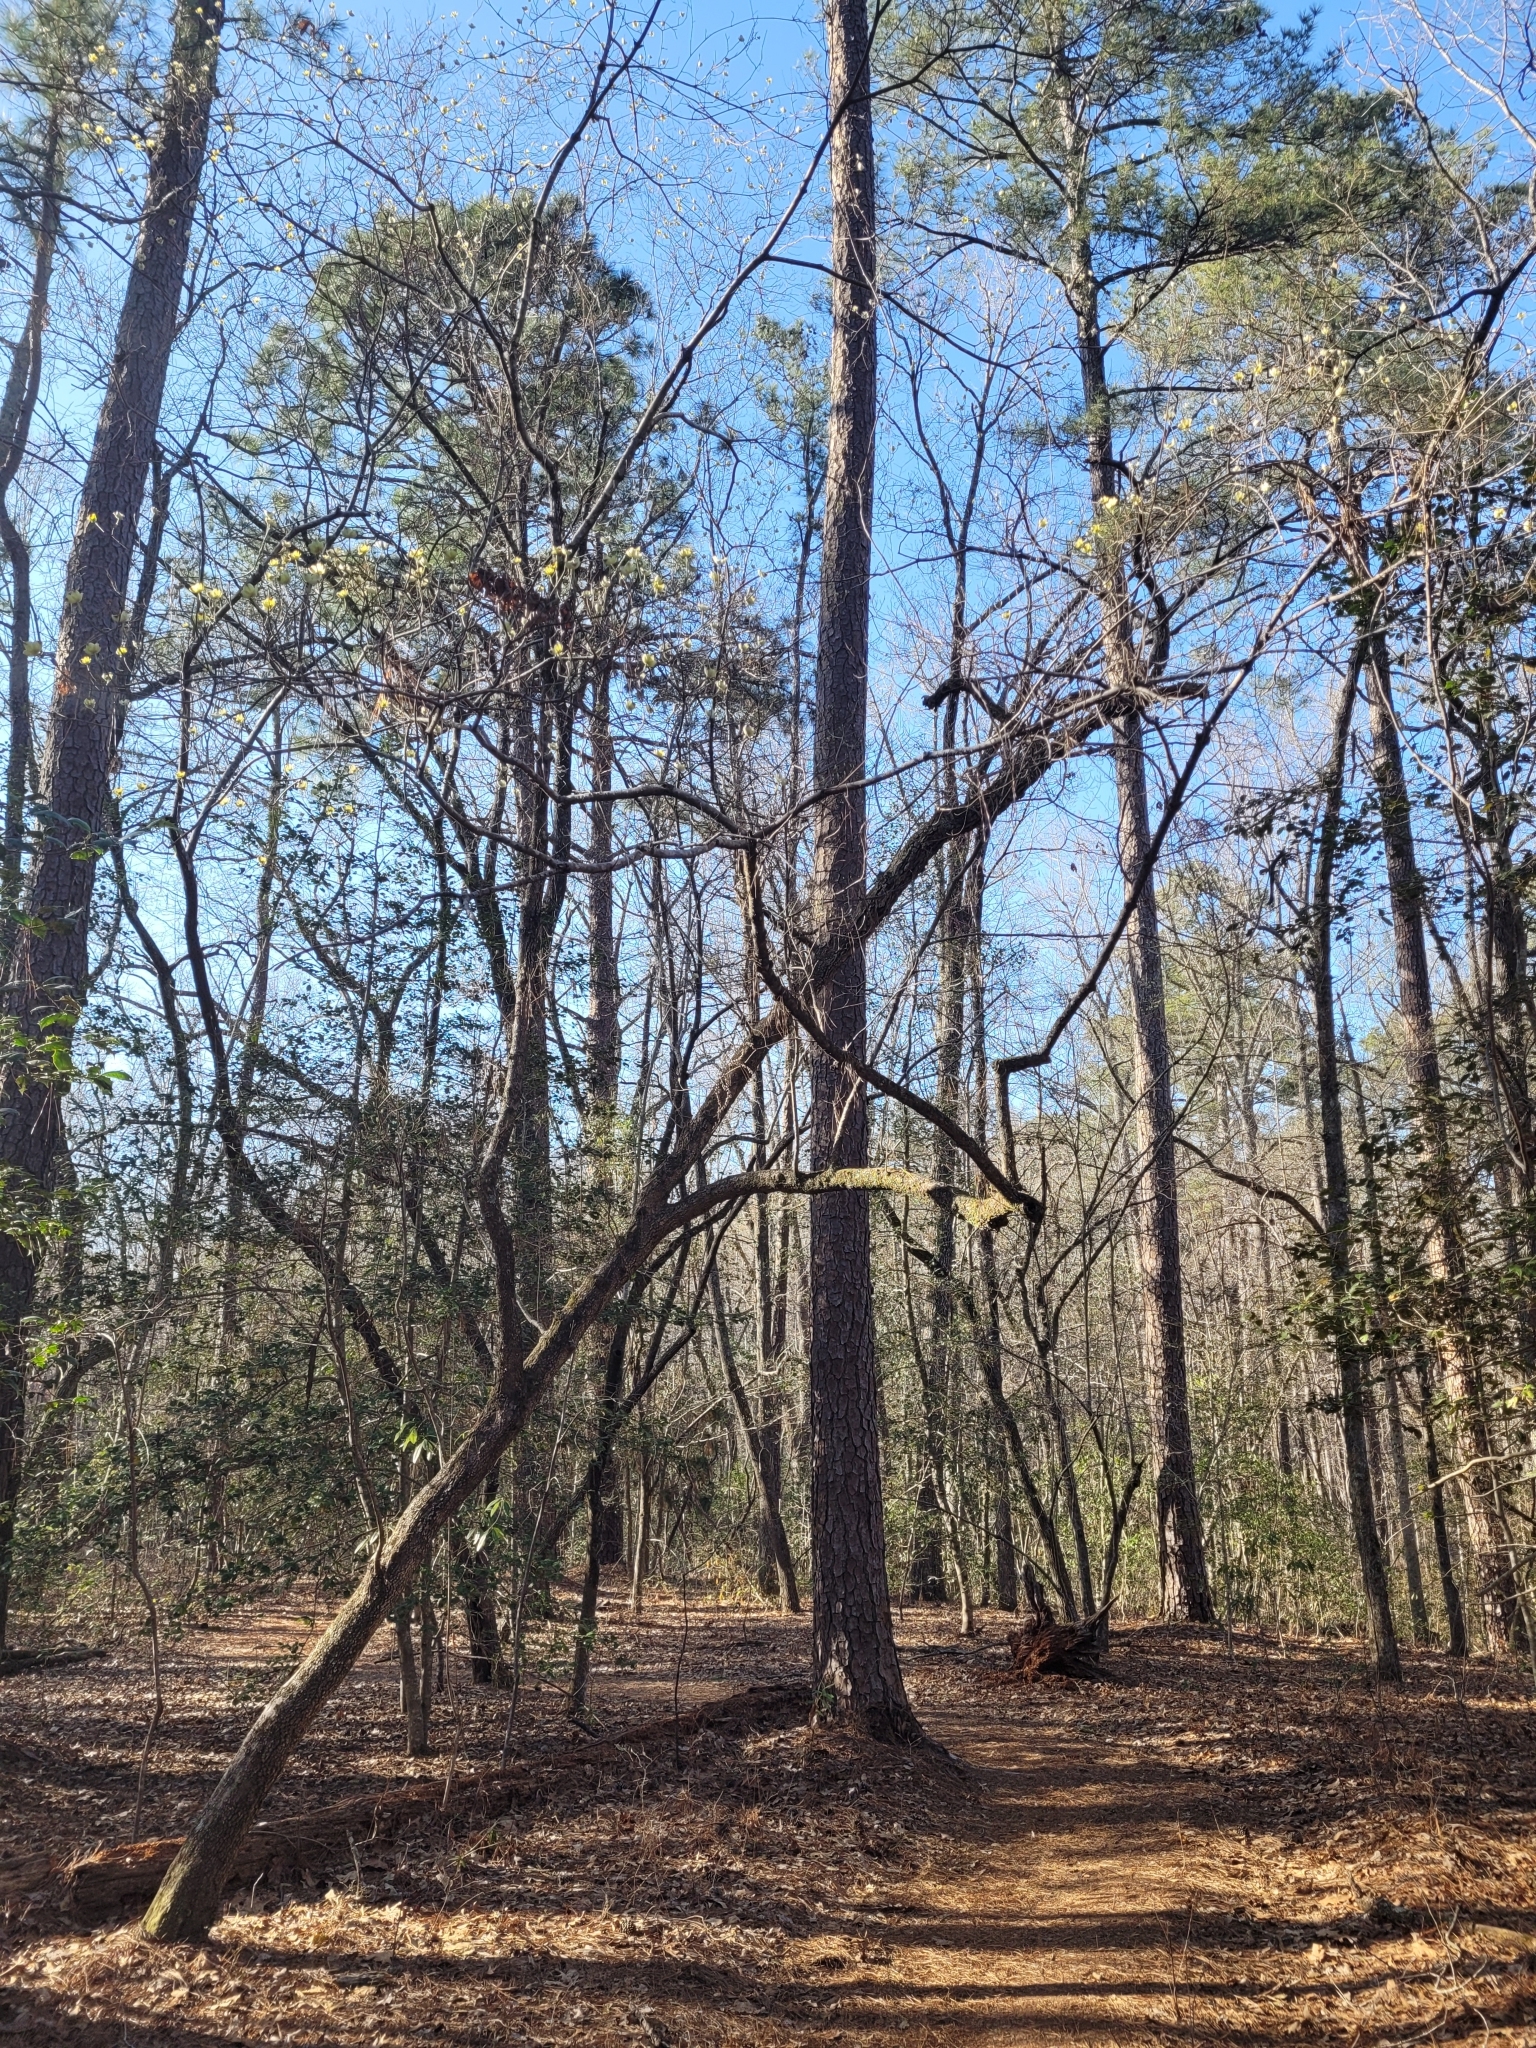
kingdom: Plantae
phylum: Tracheophyta
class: Magnoliopsida
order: Cornales
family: Cornaceae
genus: Cornus
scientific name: Cornus florida
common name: Flowering dogwood
